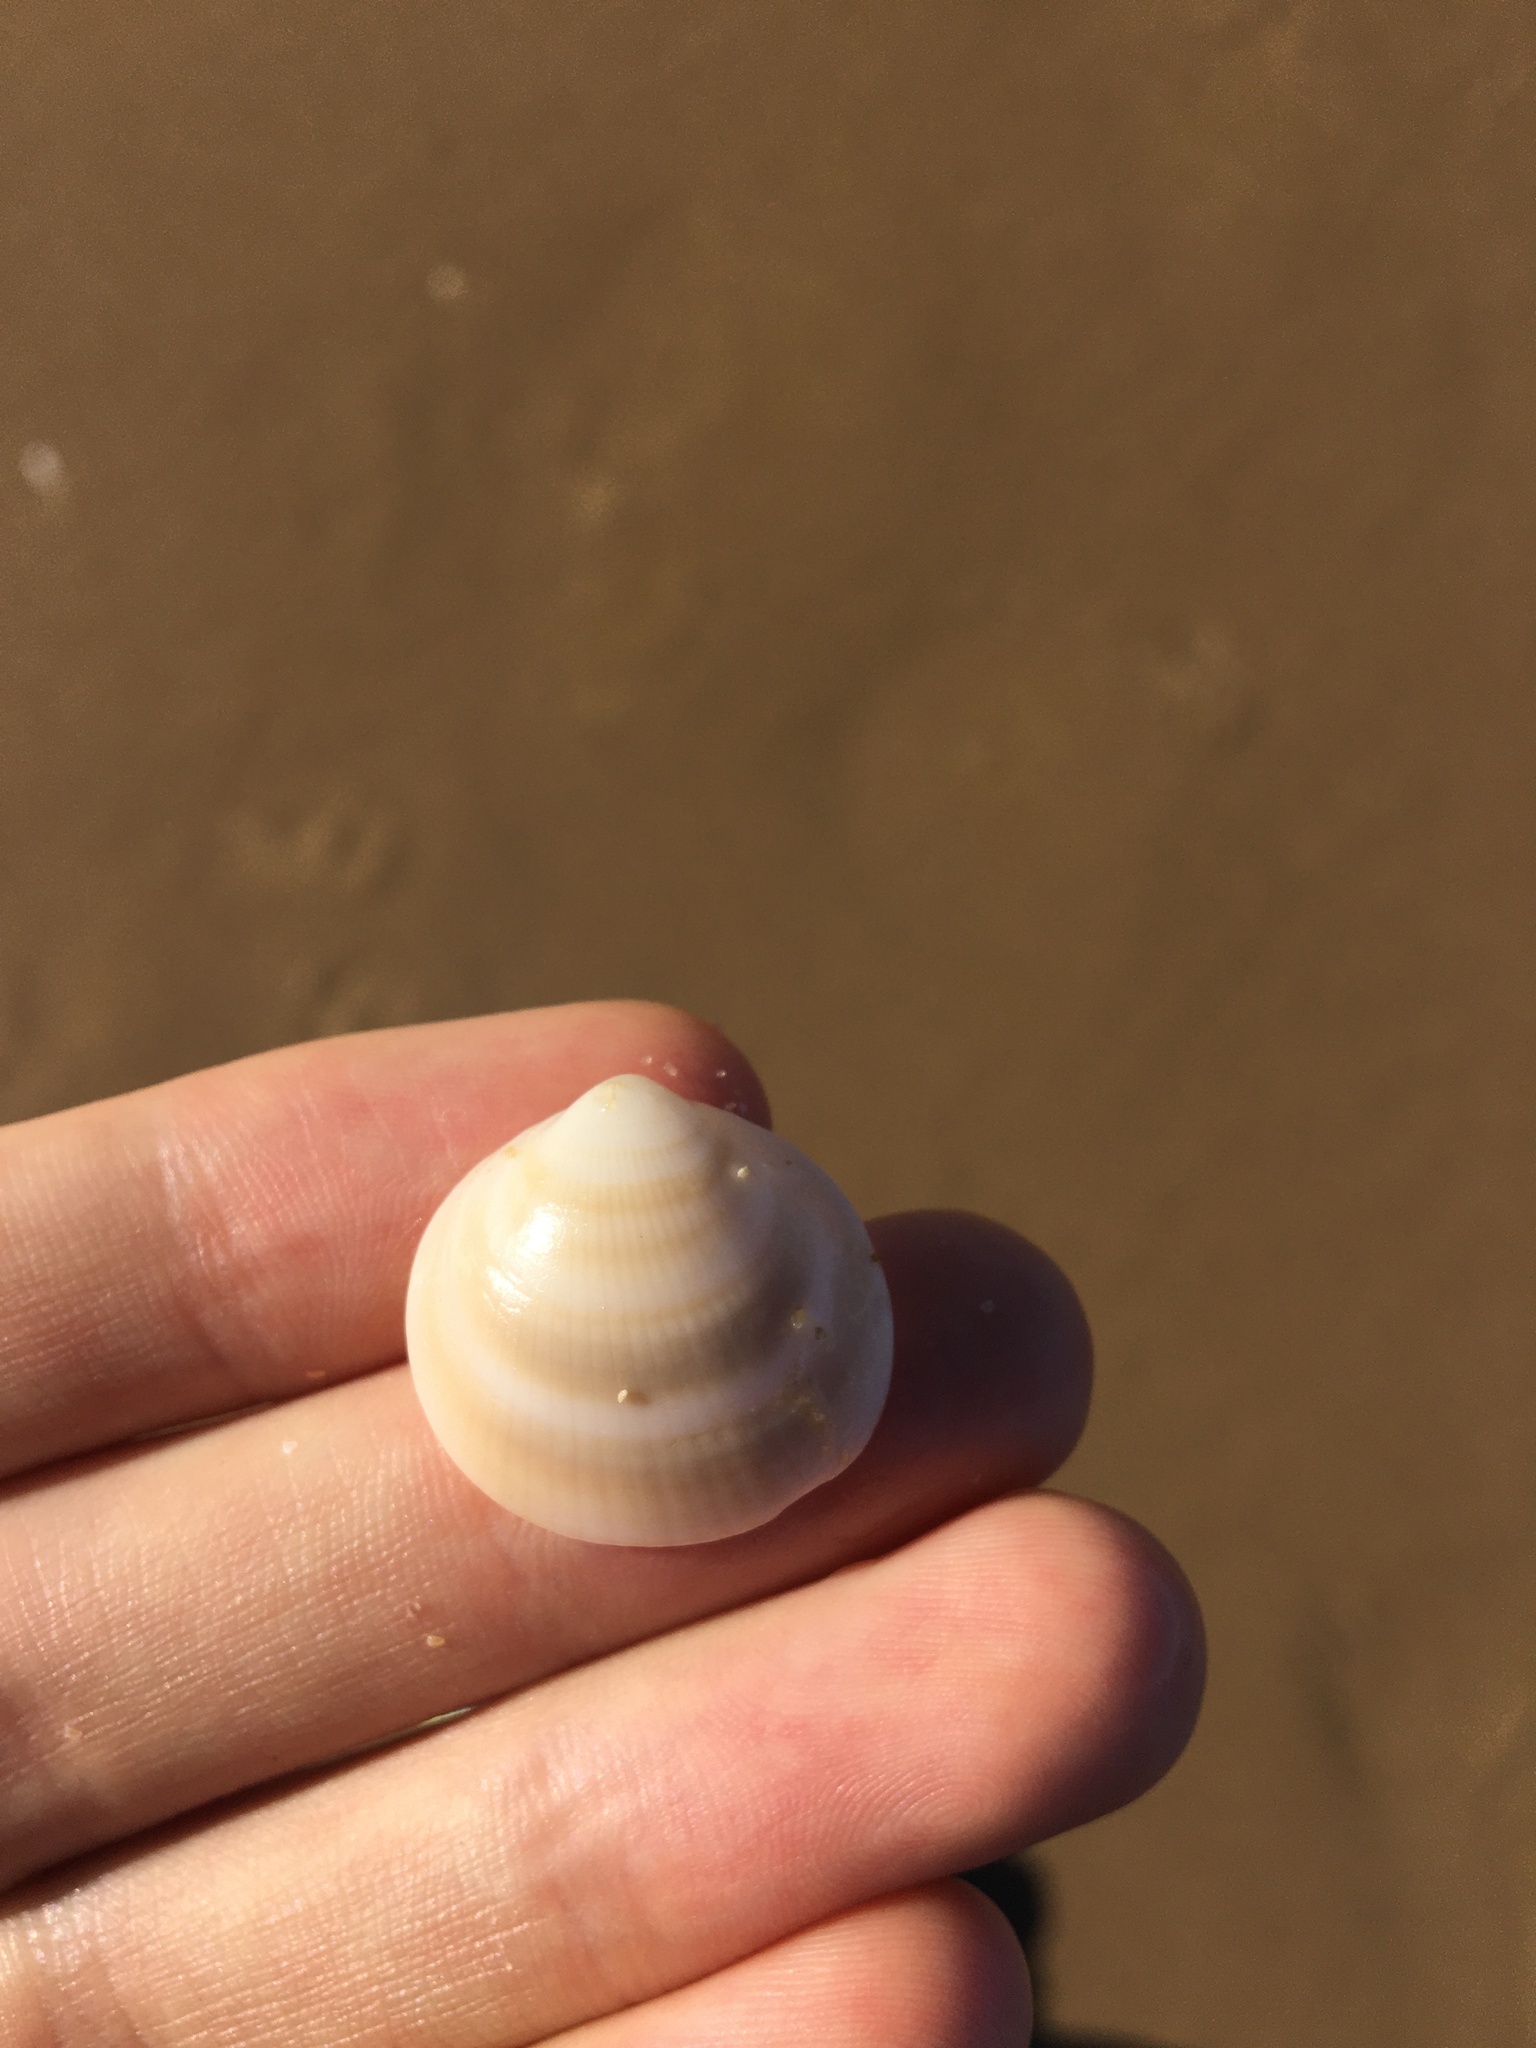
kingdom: Animalia
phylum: Mollusca
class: Bivalvia
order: Arcida
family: Glycymerididae
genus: Glycymeris
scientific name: Glycymeris grayana
